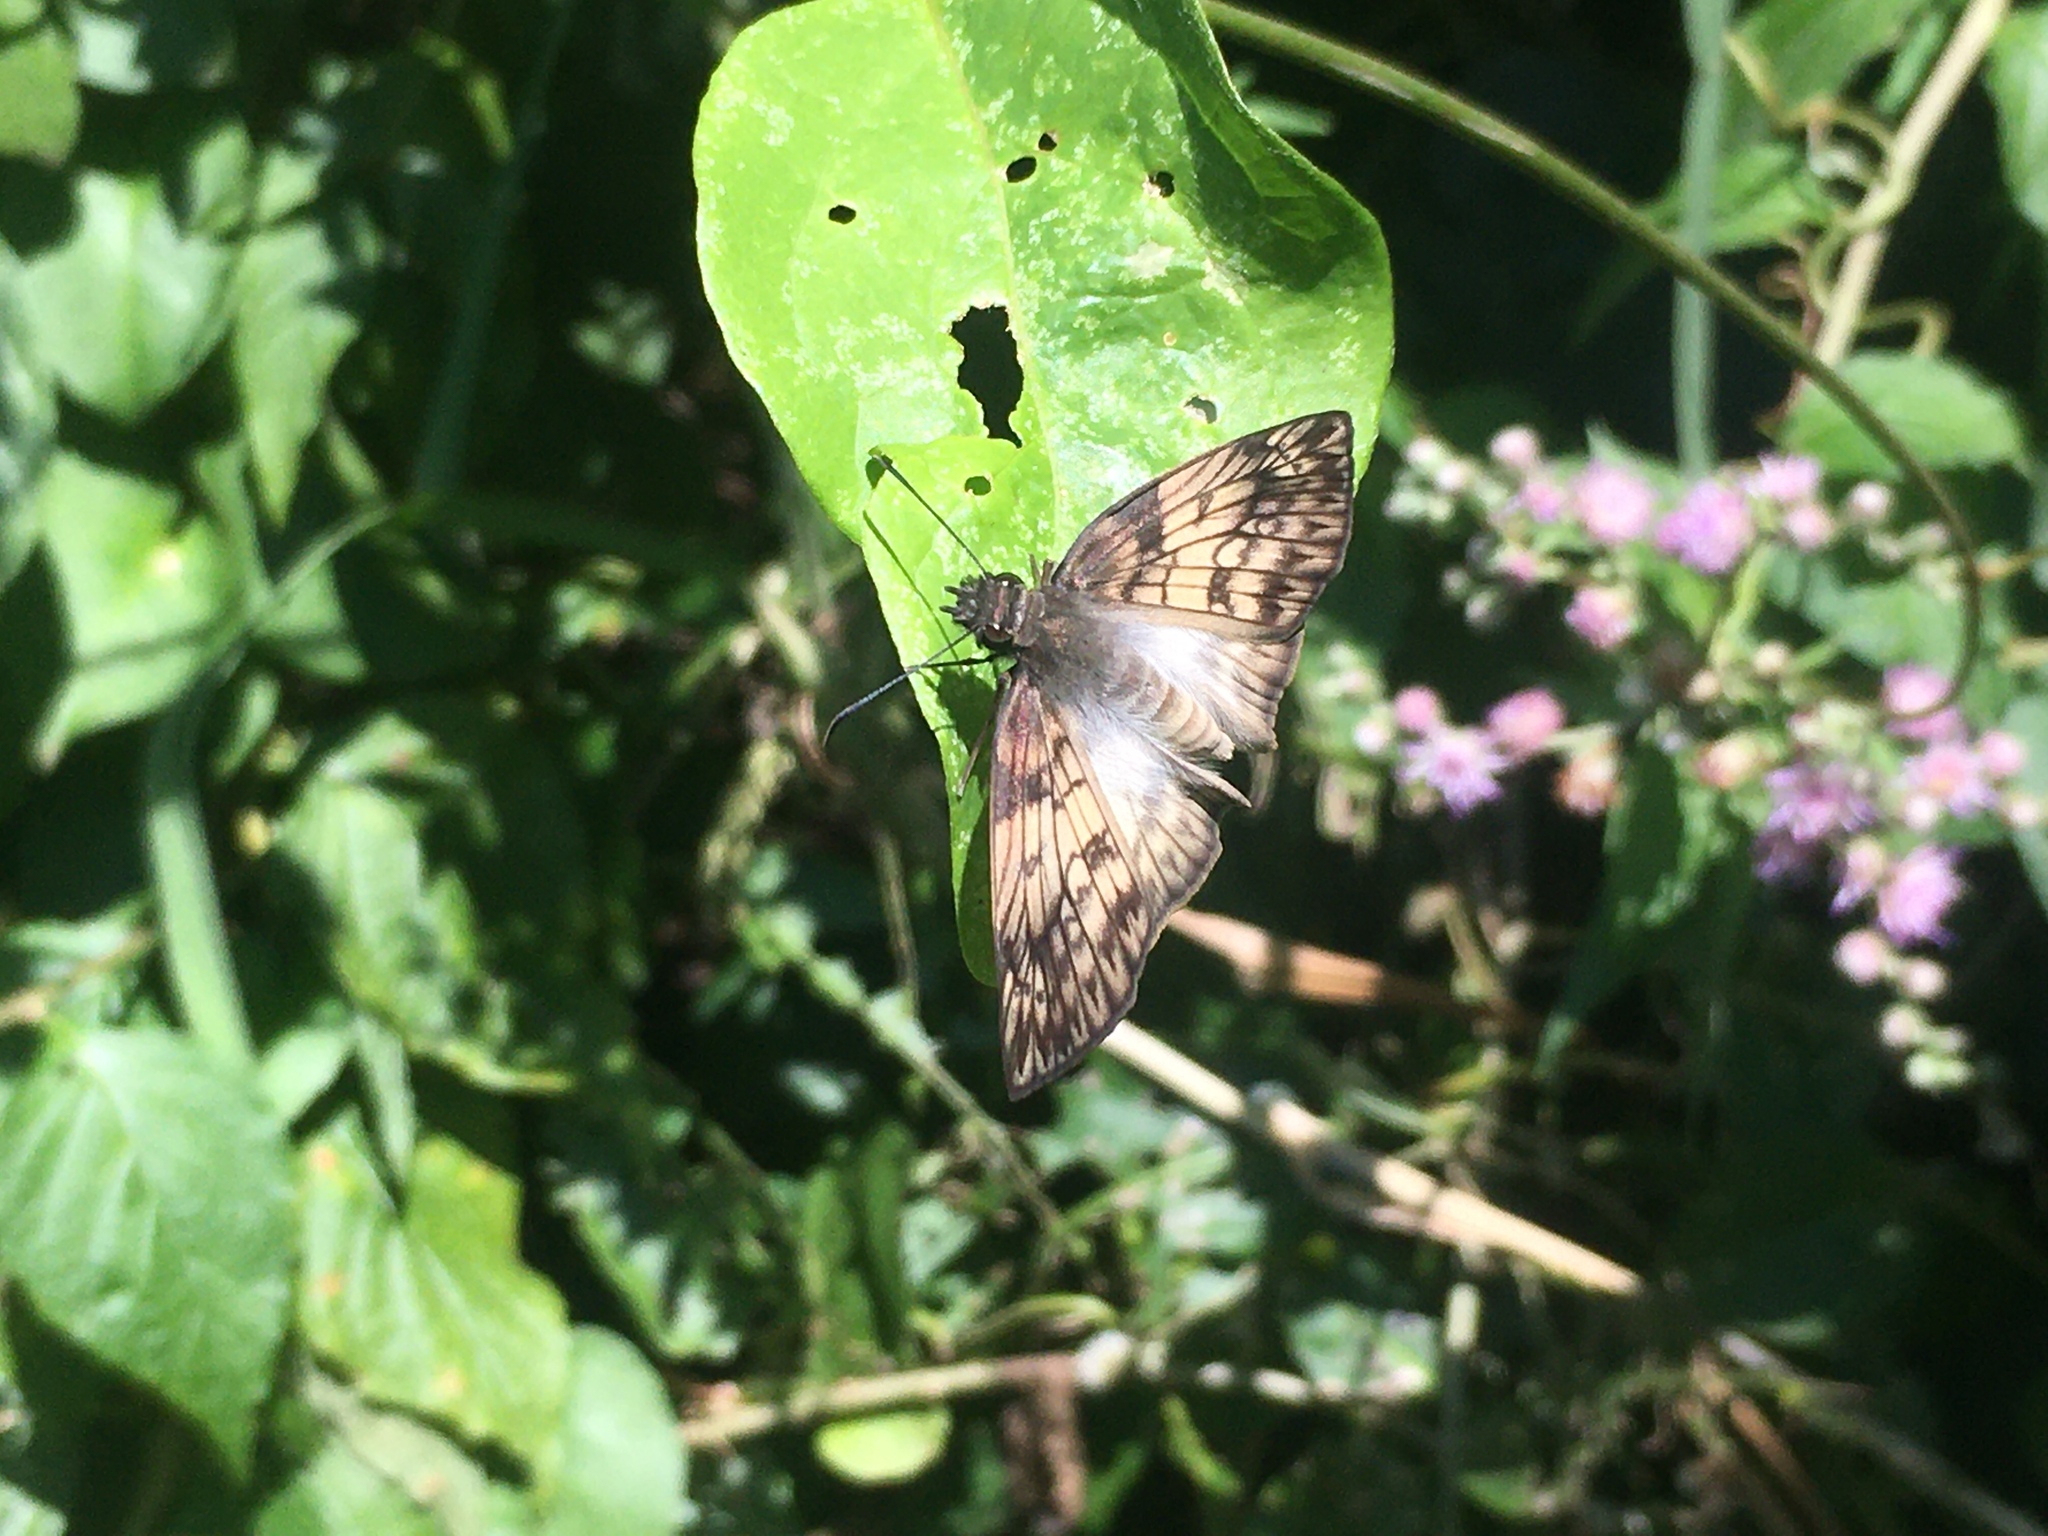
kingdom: Animalia
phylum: Arthropoda
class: Insecta
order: Lepidoptera
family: Hesperiidae
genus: Mylon
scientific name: Mylon maimon
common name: Common mylon
